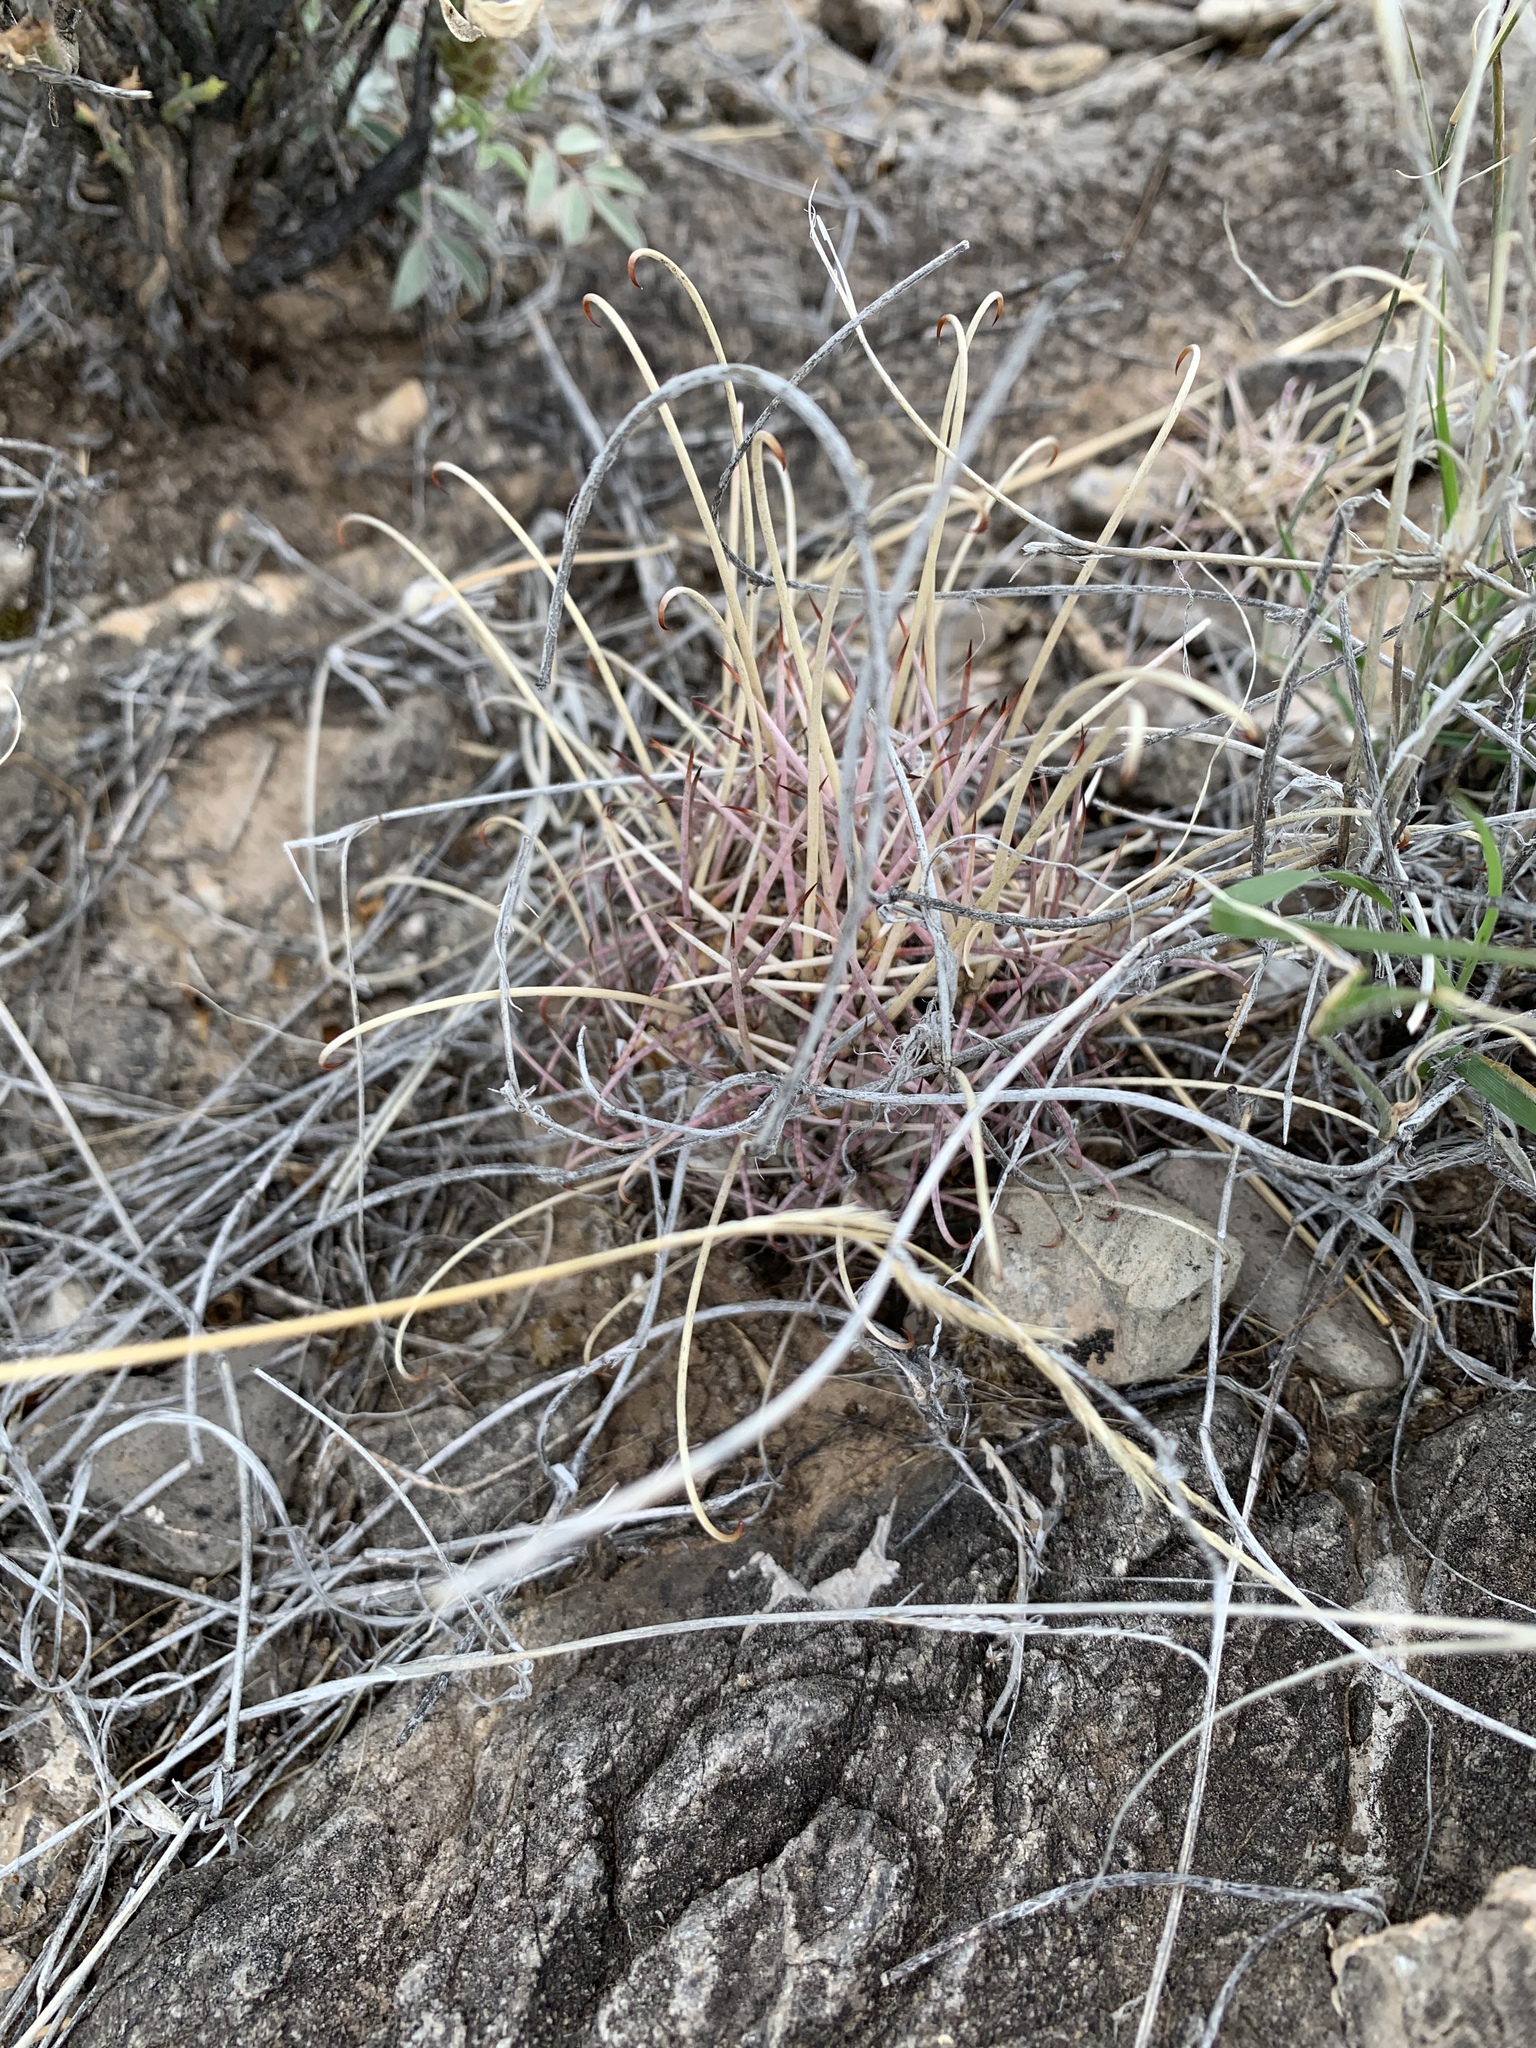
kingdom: Plantae
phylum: Tracheophyta
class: Magnoliopsida
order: Caryophyllales
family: Cactaceae
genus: Ferocactus
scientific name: Ferocactus uncinatus
